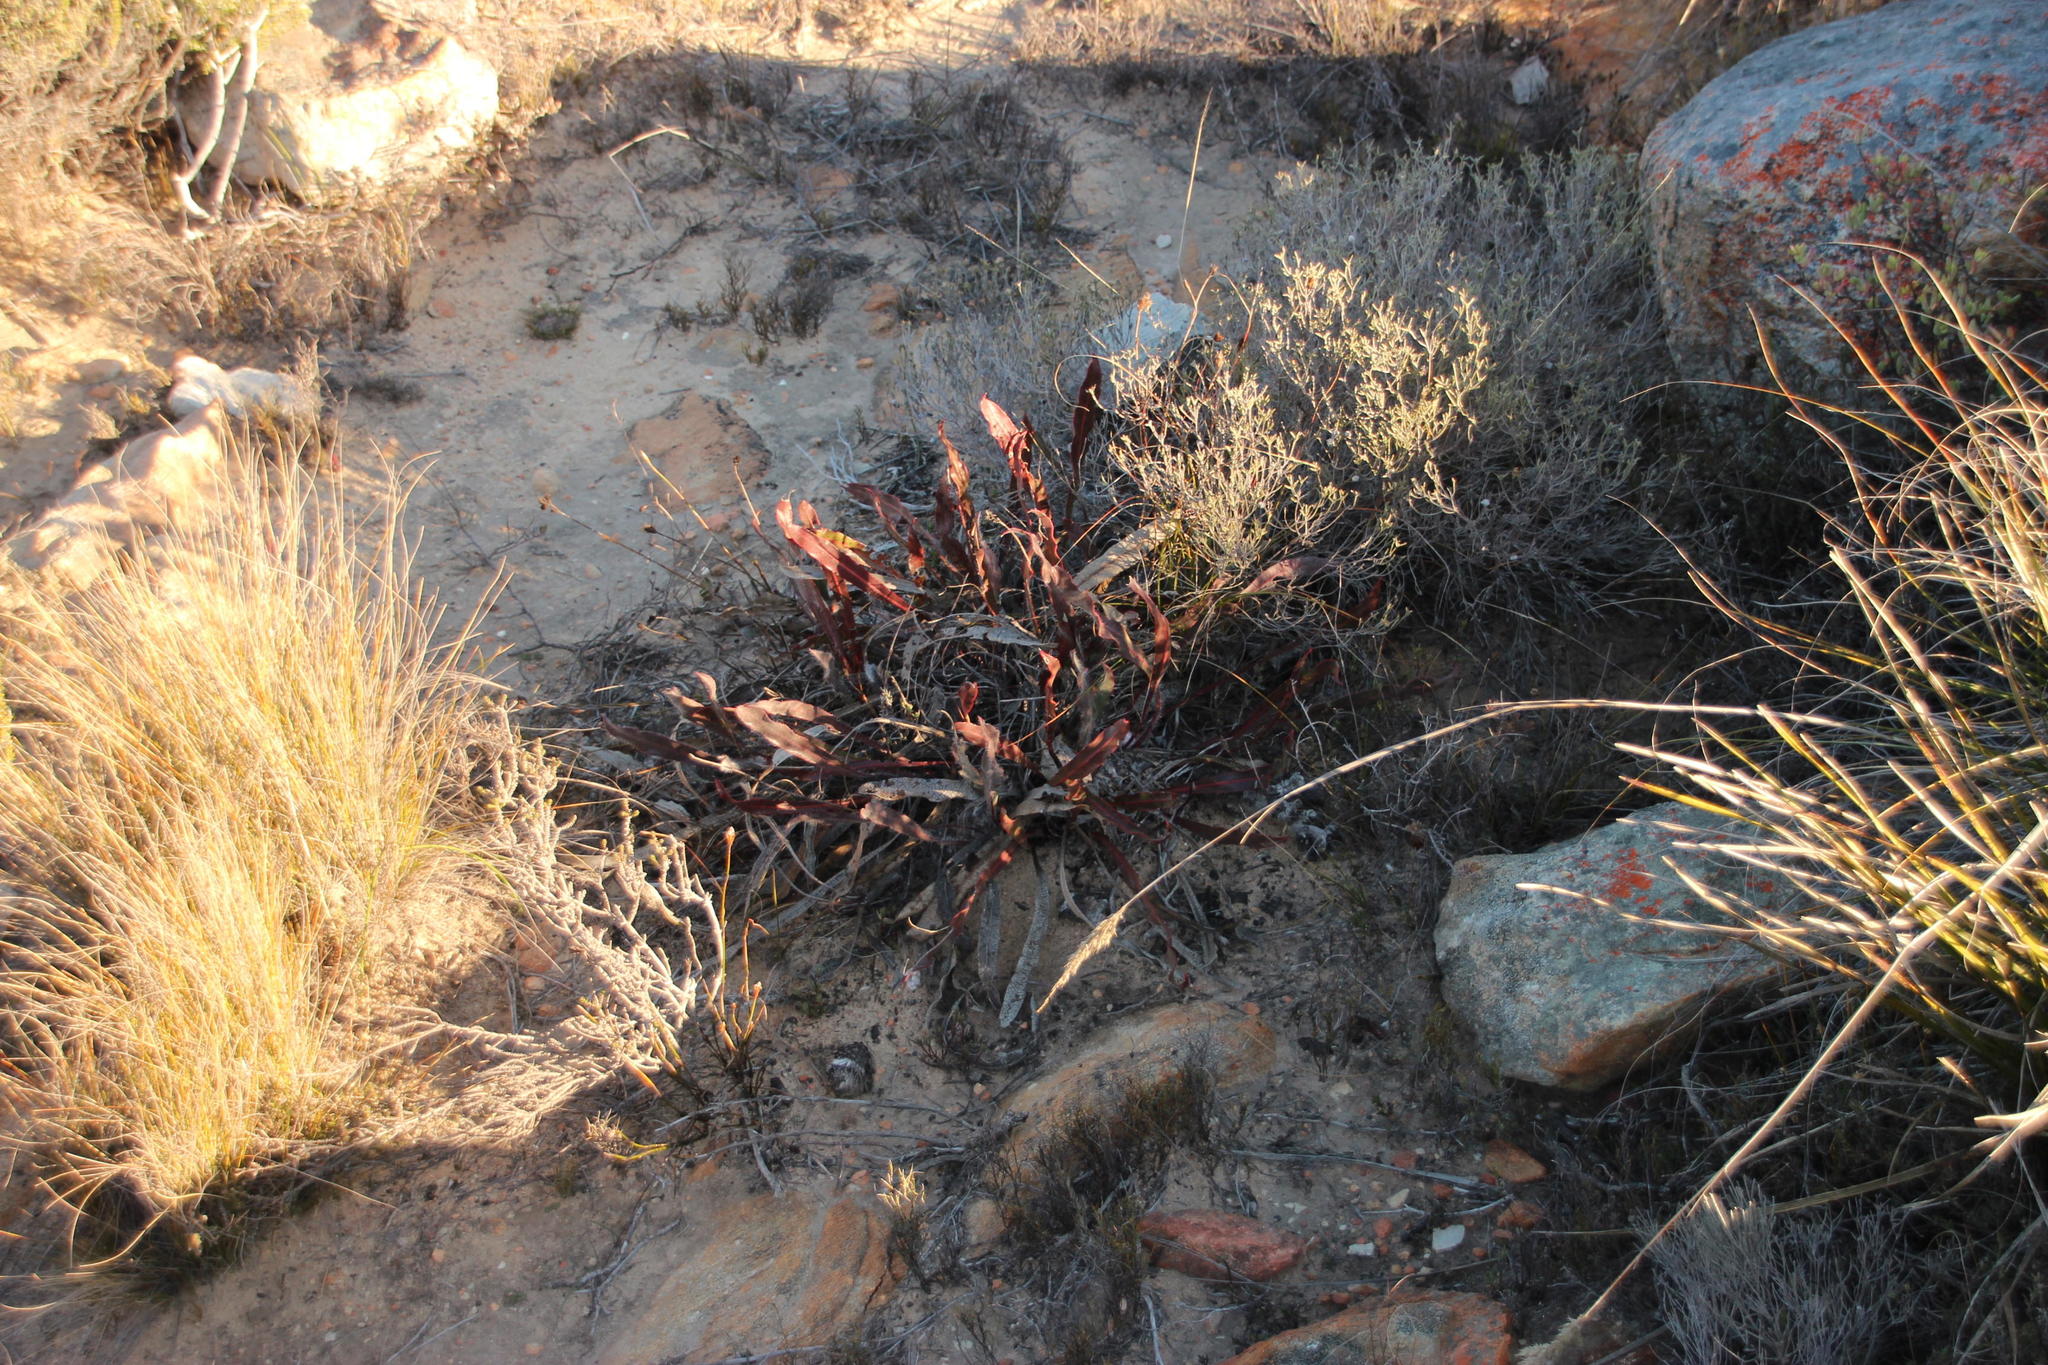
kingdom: Plantae
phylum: Tracheophyta
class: Magnoliopsida
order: Proteales
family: Proteaceae
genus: Protea
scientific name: Protea scolopendriifolia
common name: Harts-tongue-fern sugarbush
